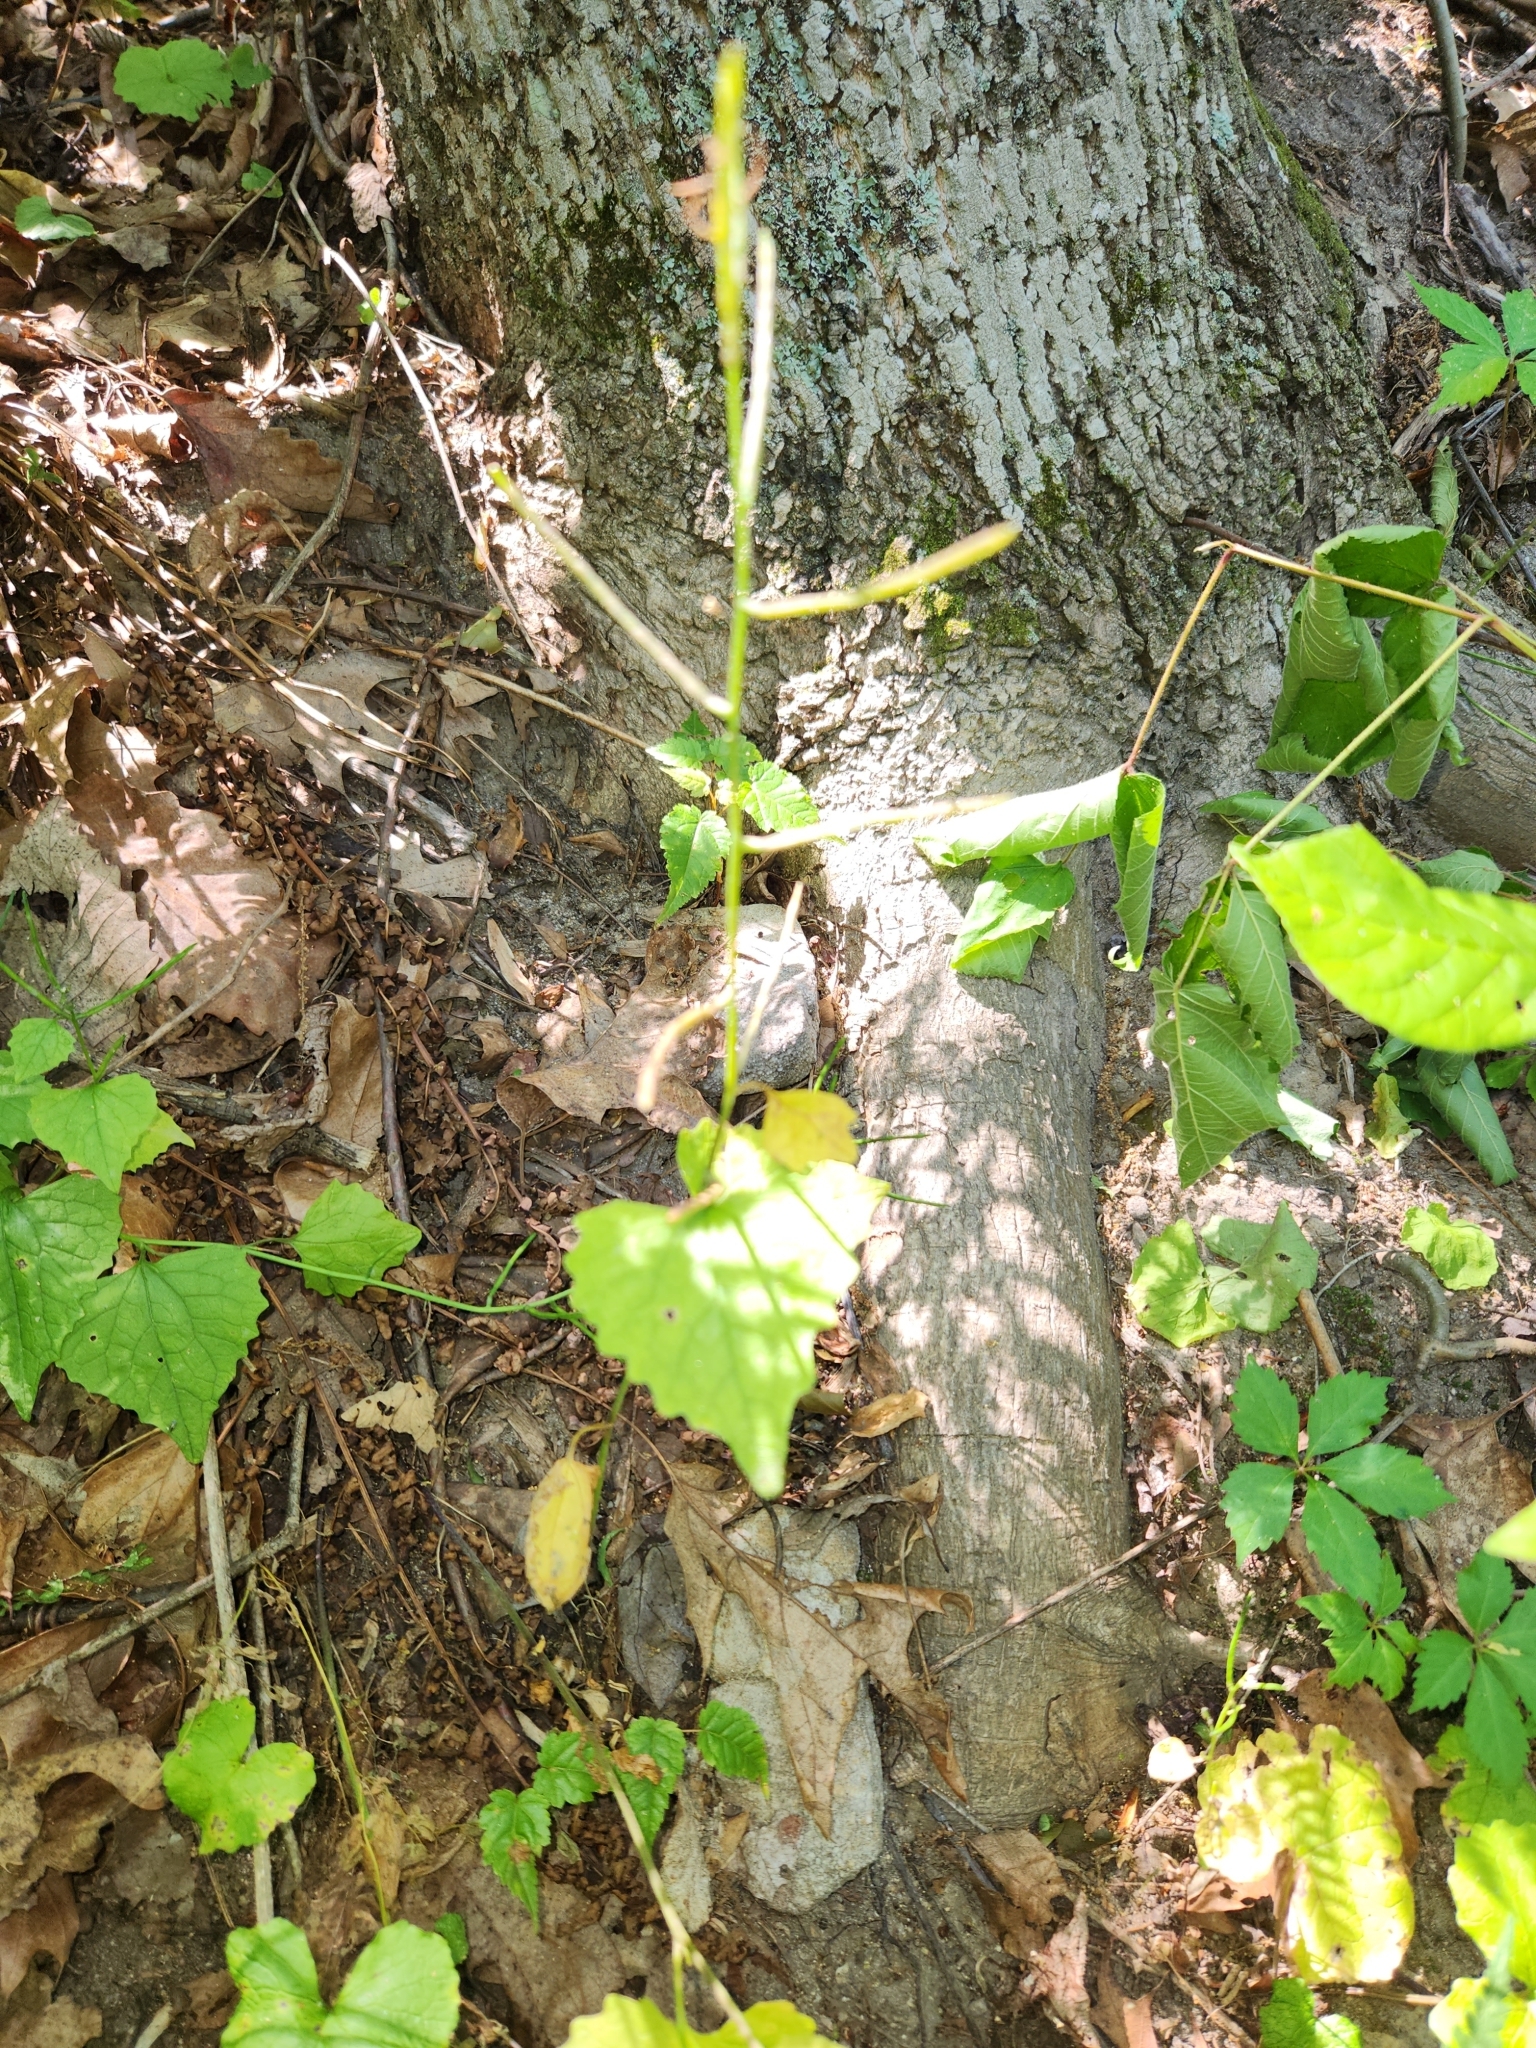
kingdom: Plantae
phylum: Tracheophyta
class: Magnoliopsida
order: Brassicales
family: Brassicaceae
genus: Alliaria
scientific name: Alliaria petiolata
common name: Garlic mustard
